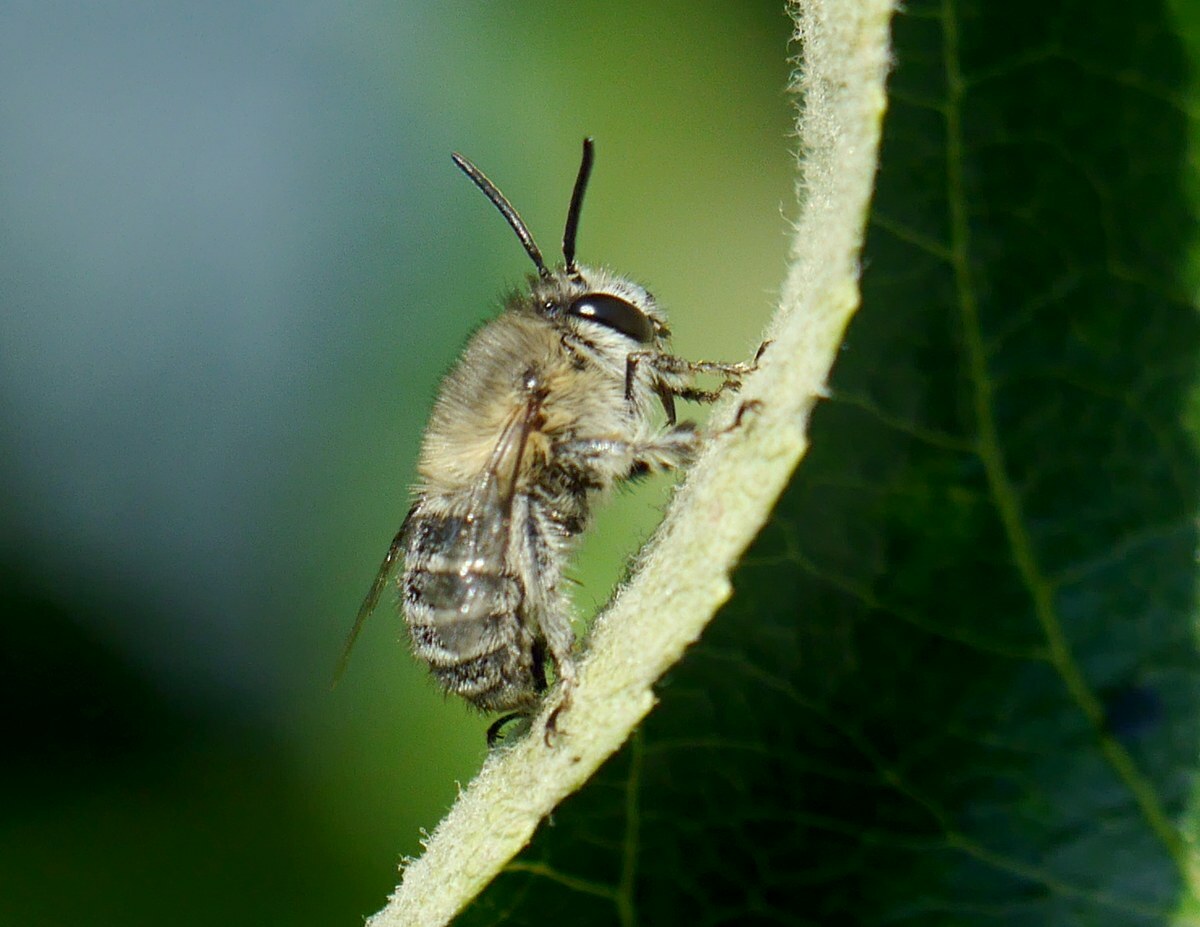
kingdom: Animalia
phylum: Arthropoda
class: Insecta
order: Hymenoptera
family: Apidae
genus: Anthophora
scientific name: Anthophora pubescens
